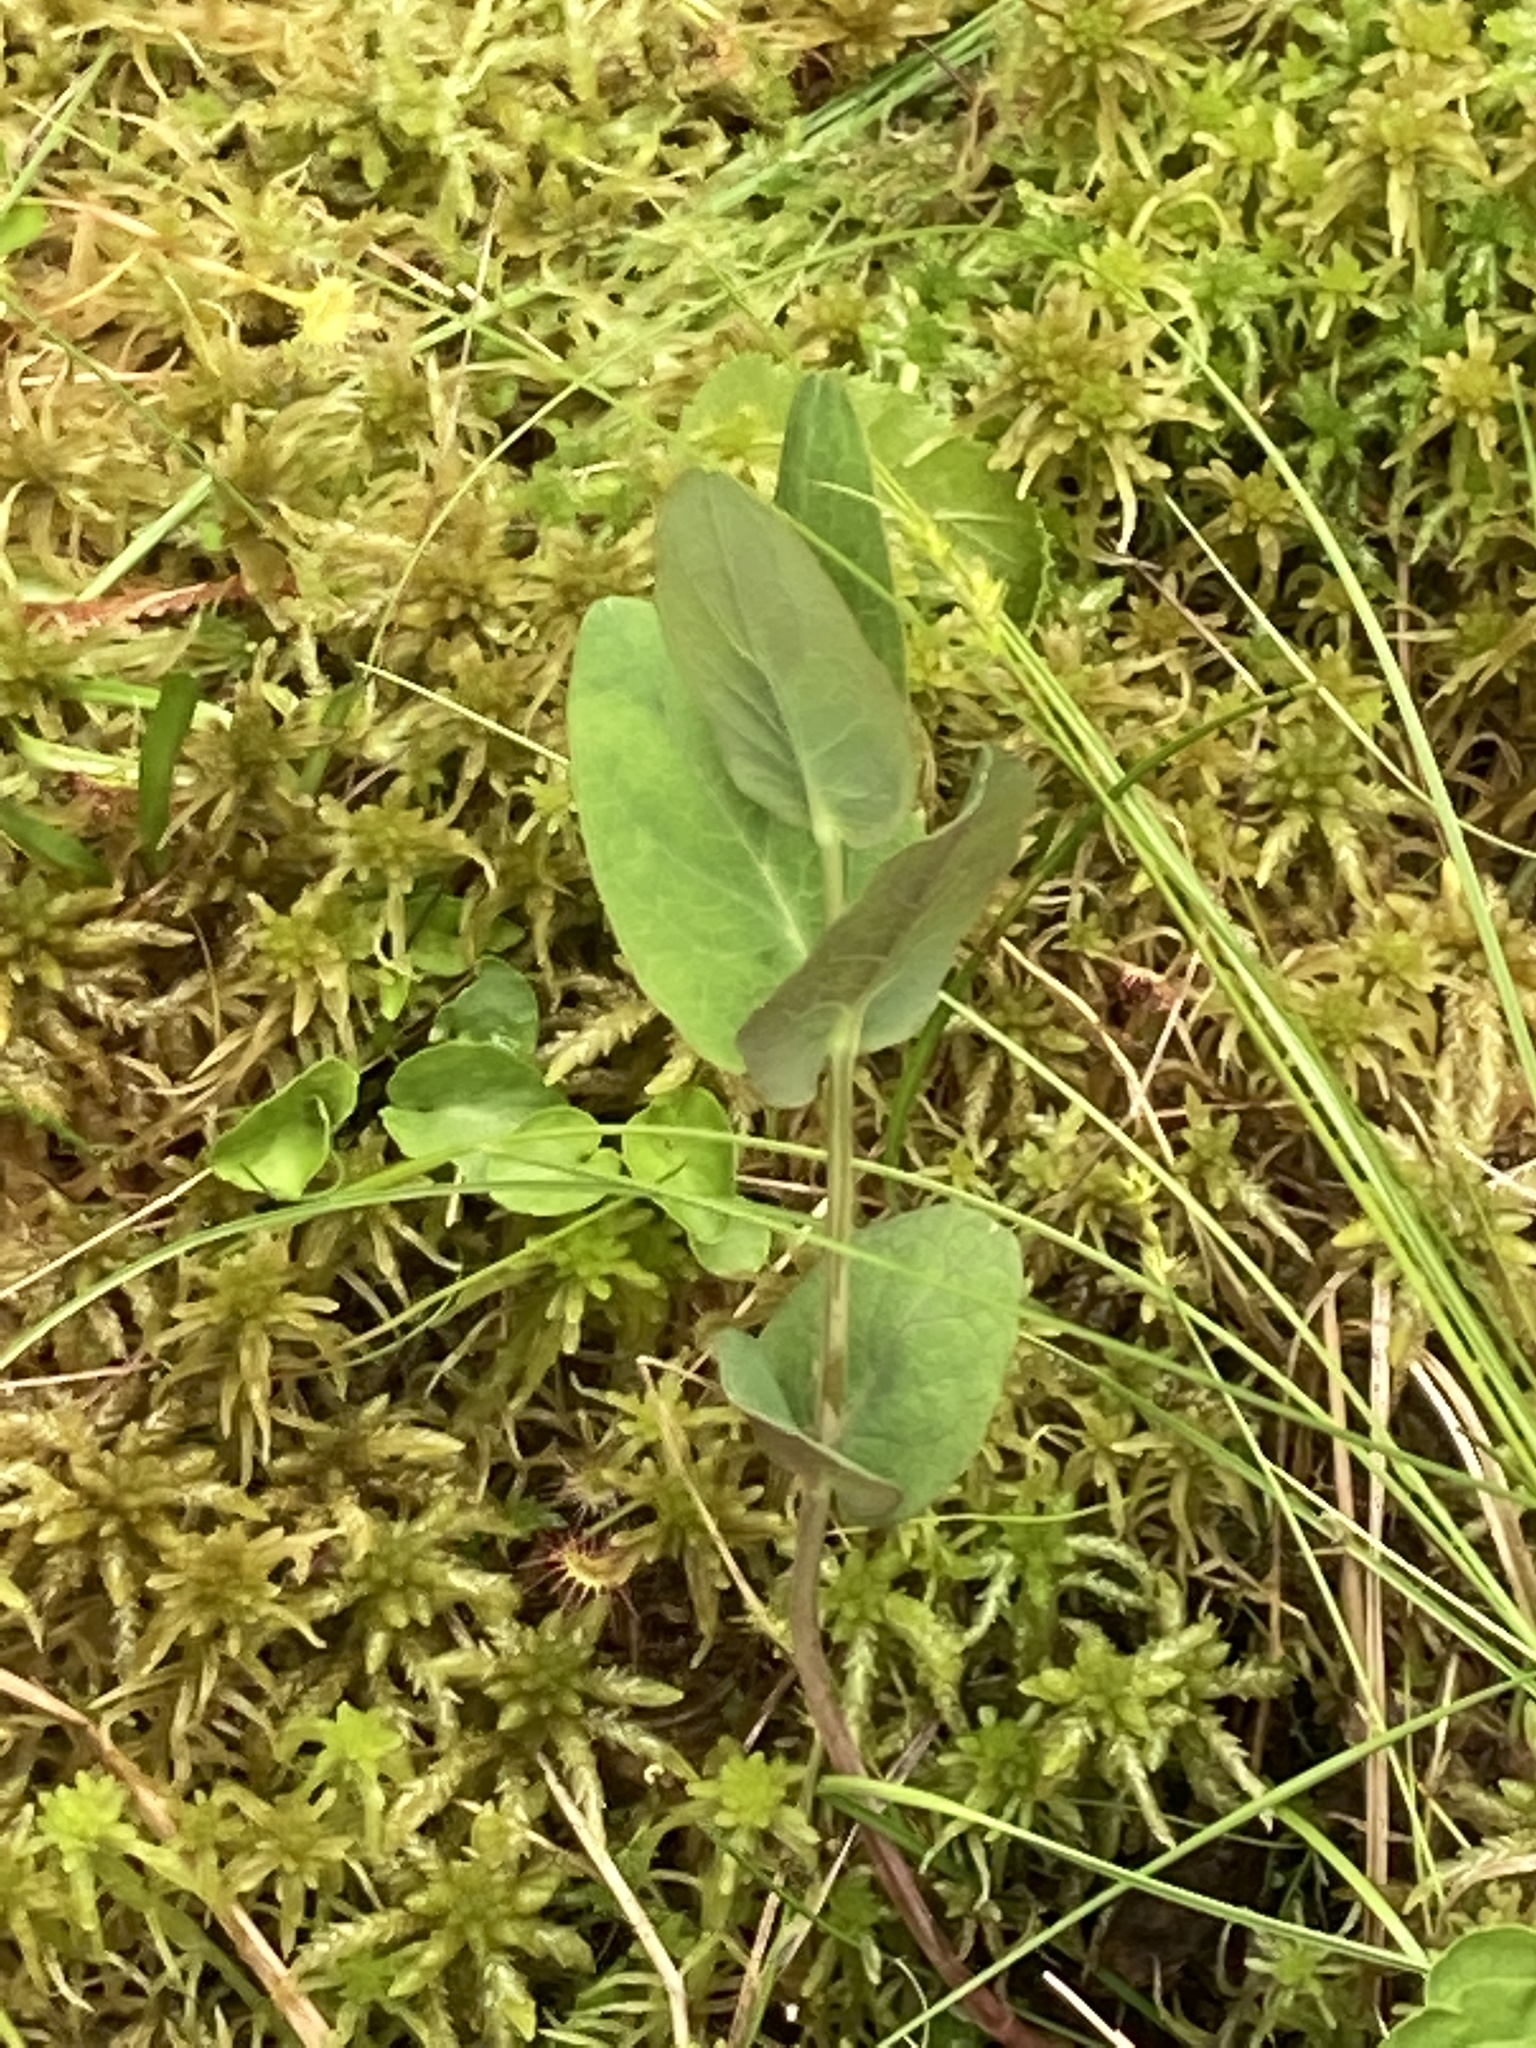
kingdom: Plantae
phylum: Tracheophyta
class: Magnoliopsida
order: Malpighiales
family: Hypericaceae
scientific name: Hypericaceae
